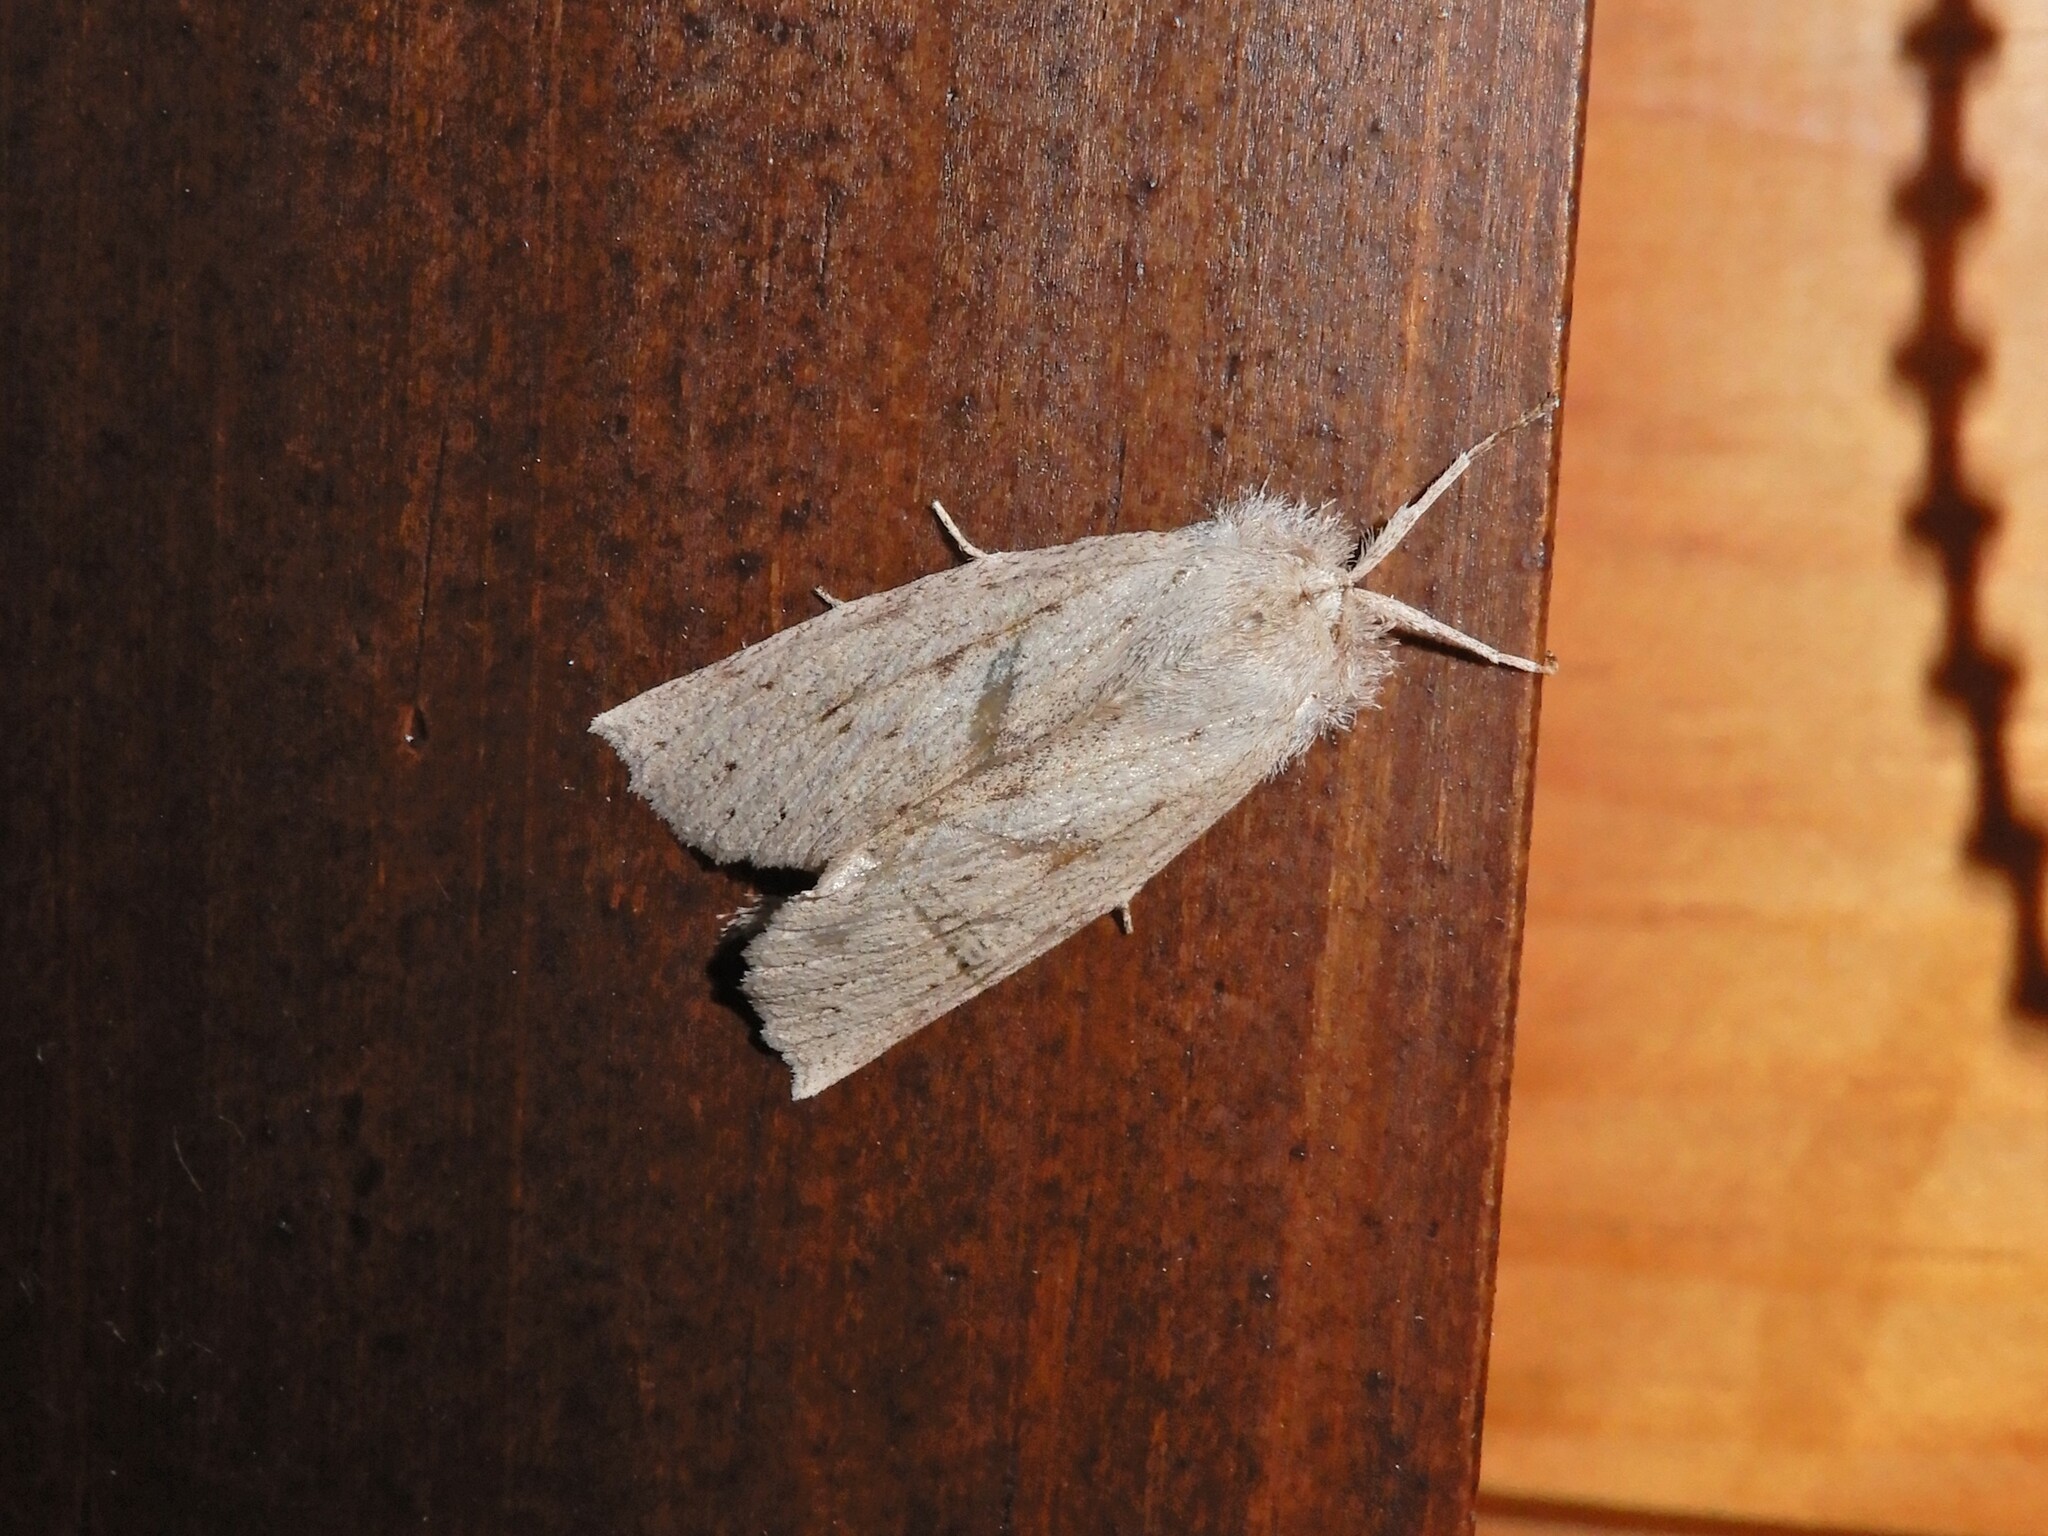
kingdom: Animalia
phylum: Arthropoda
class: Insecta
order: Lepidoptera
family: Geometridae
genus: Declana
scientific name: Declana leptomera
